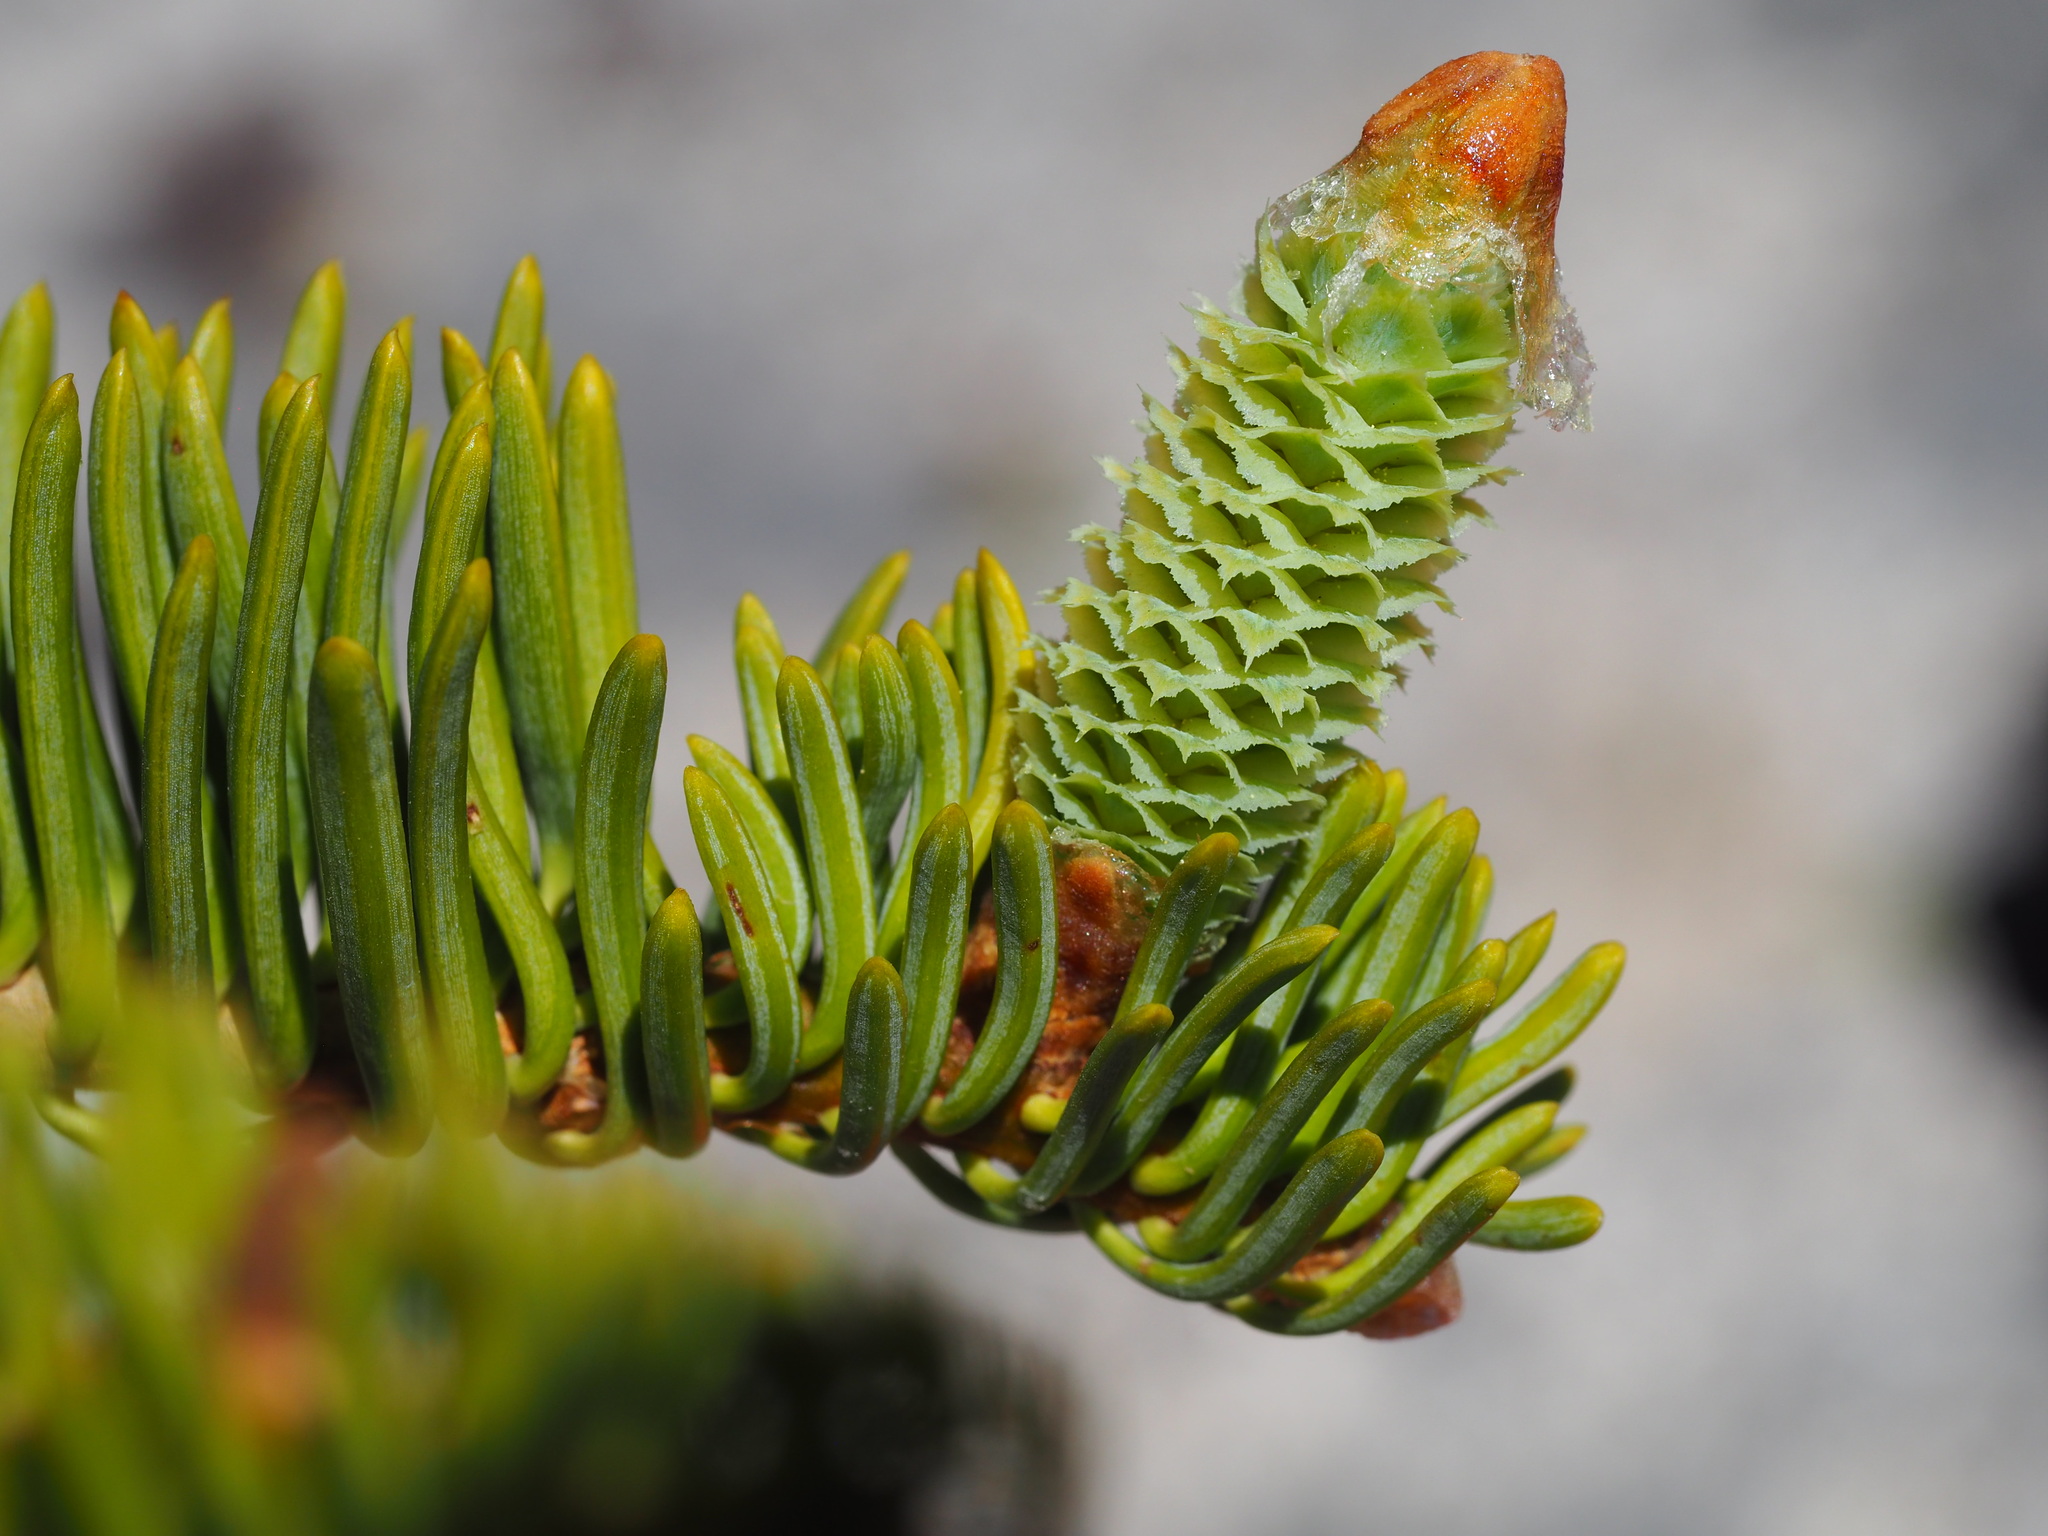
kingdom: Plantae
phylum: Tracheophyta
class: Pinopsida
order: Pinales
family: Pinaceae
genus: Abies
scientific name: Abies magnifica bis
